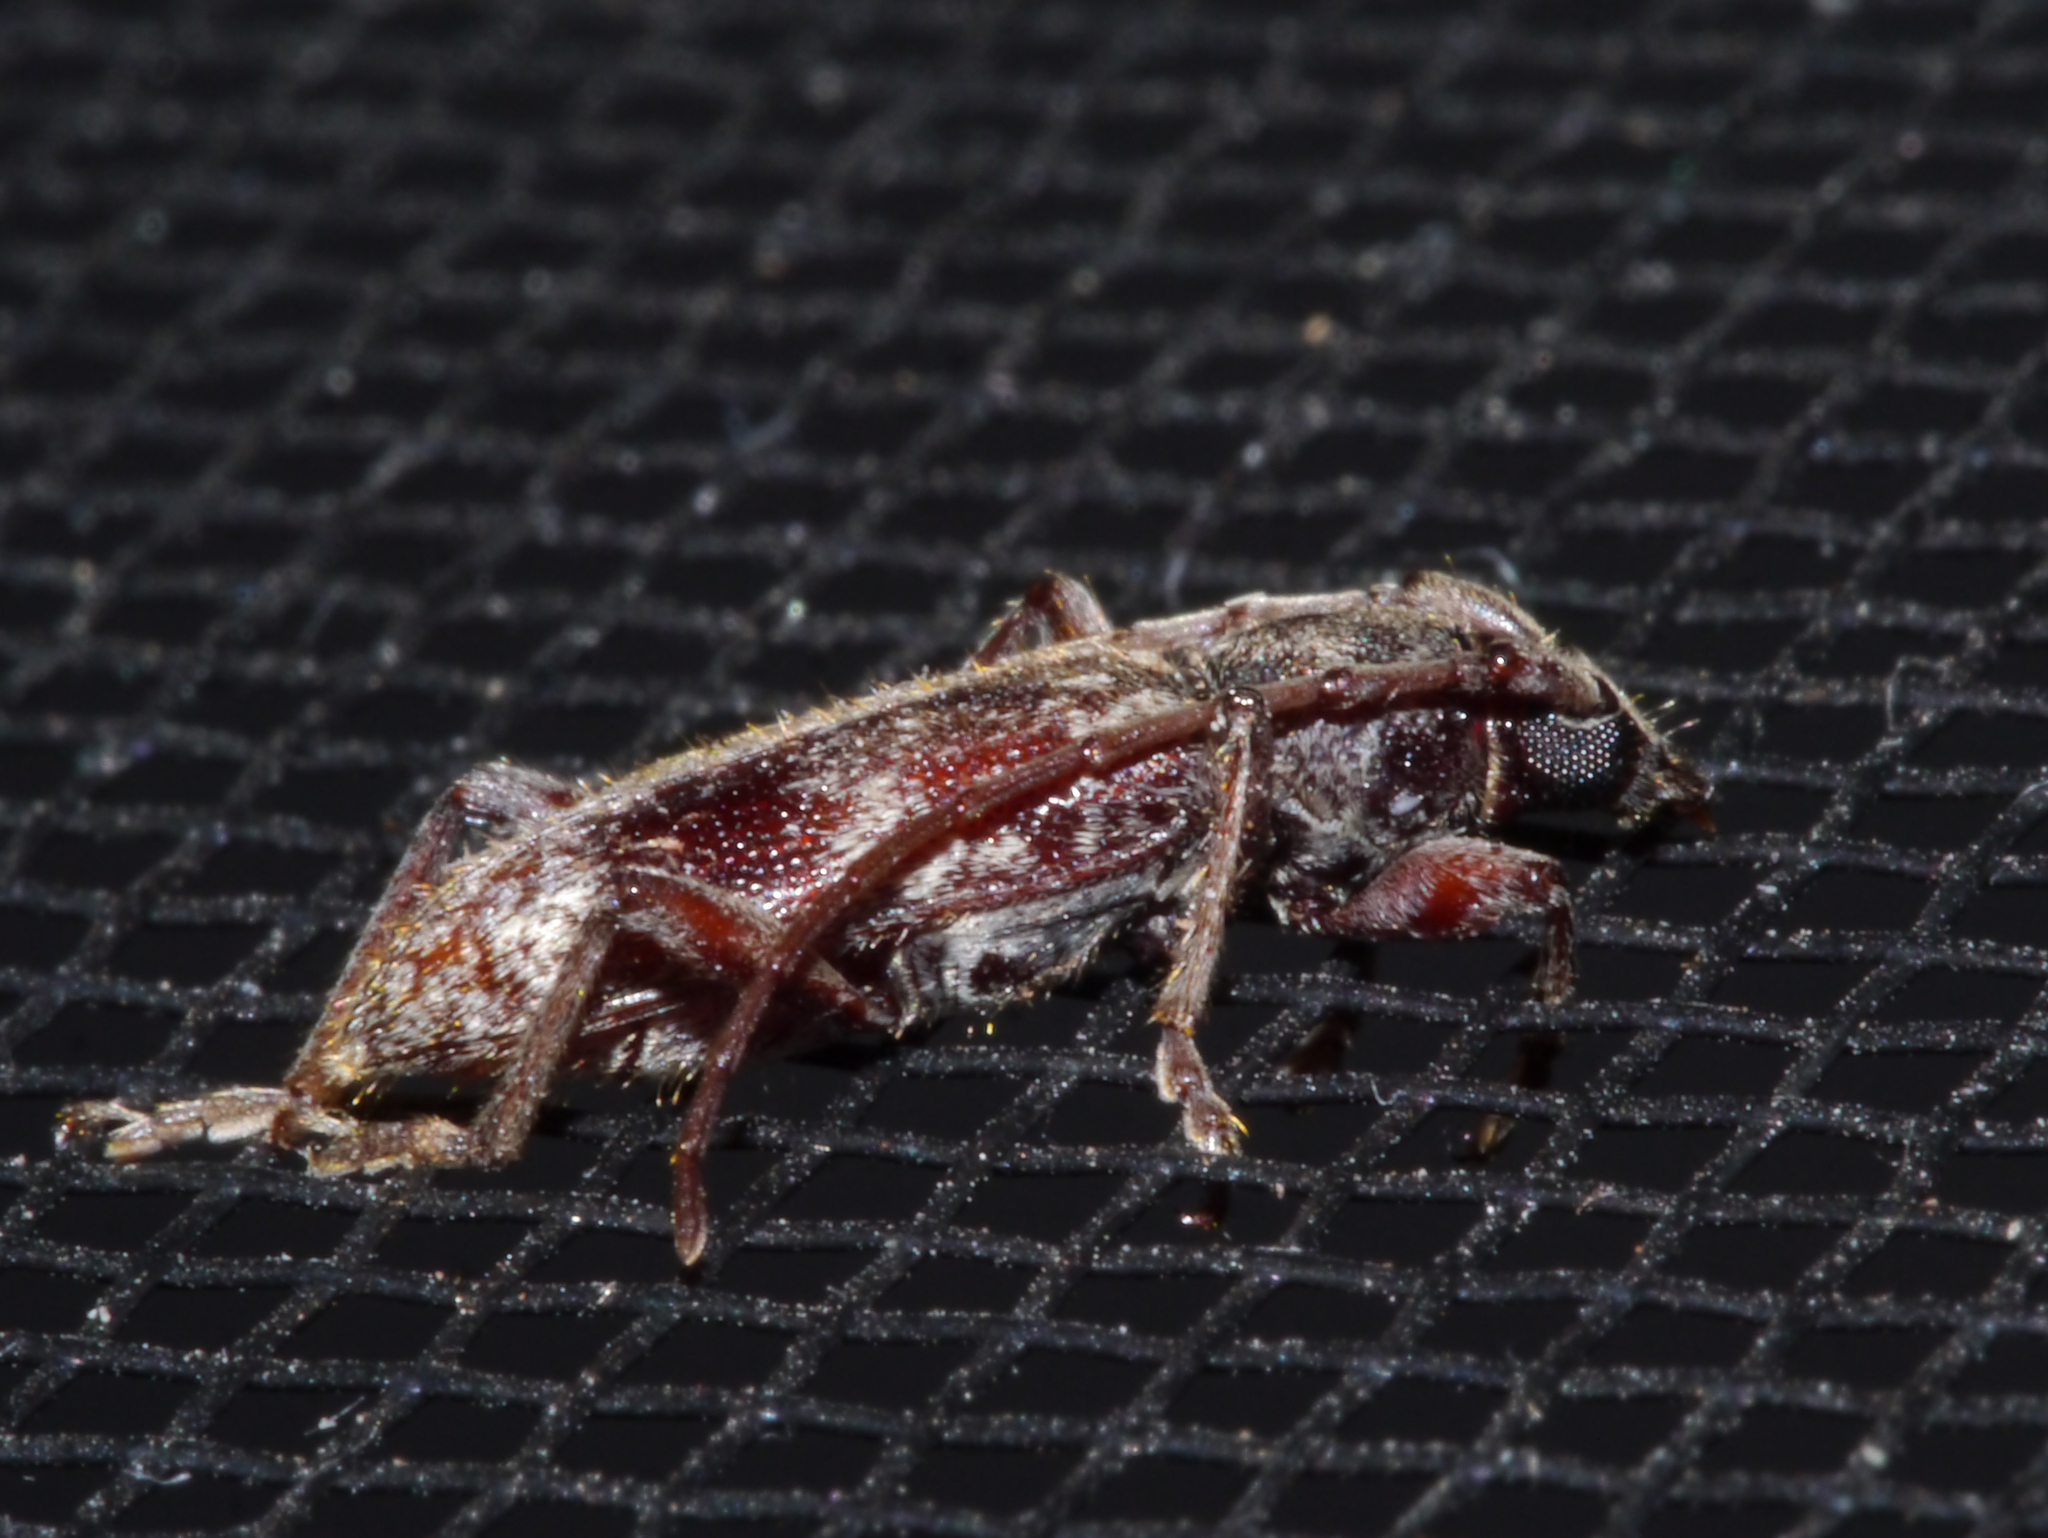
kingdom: Animalia
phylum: Arthropoda
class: Insecta
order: Coleoptera
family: Cerambycidae
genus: Anelaphus
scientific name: Anelaphus yucatecus
